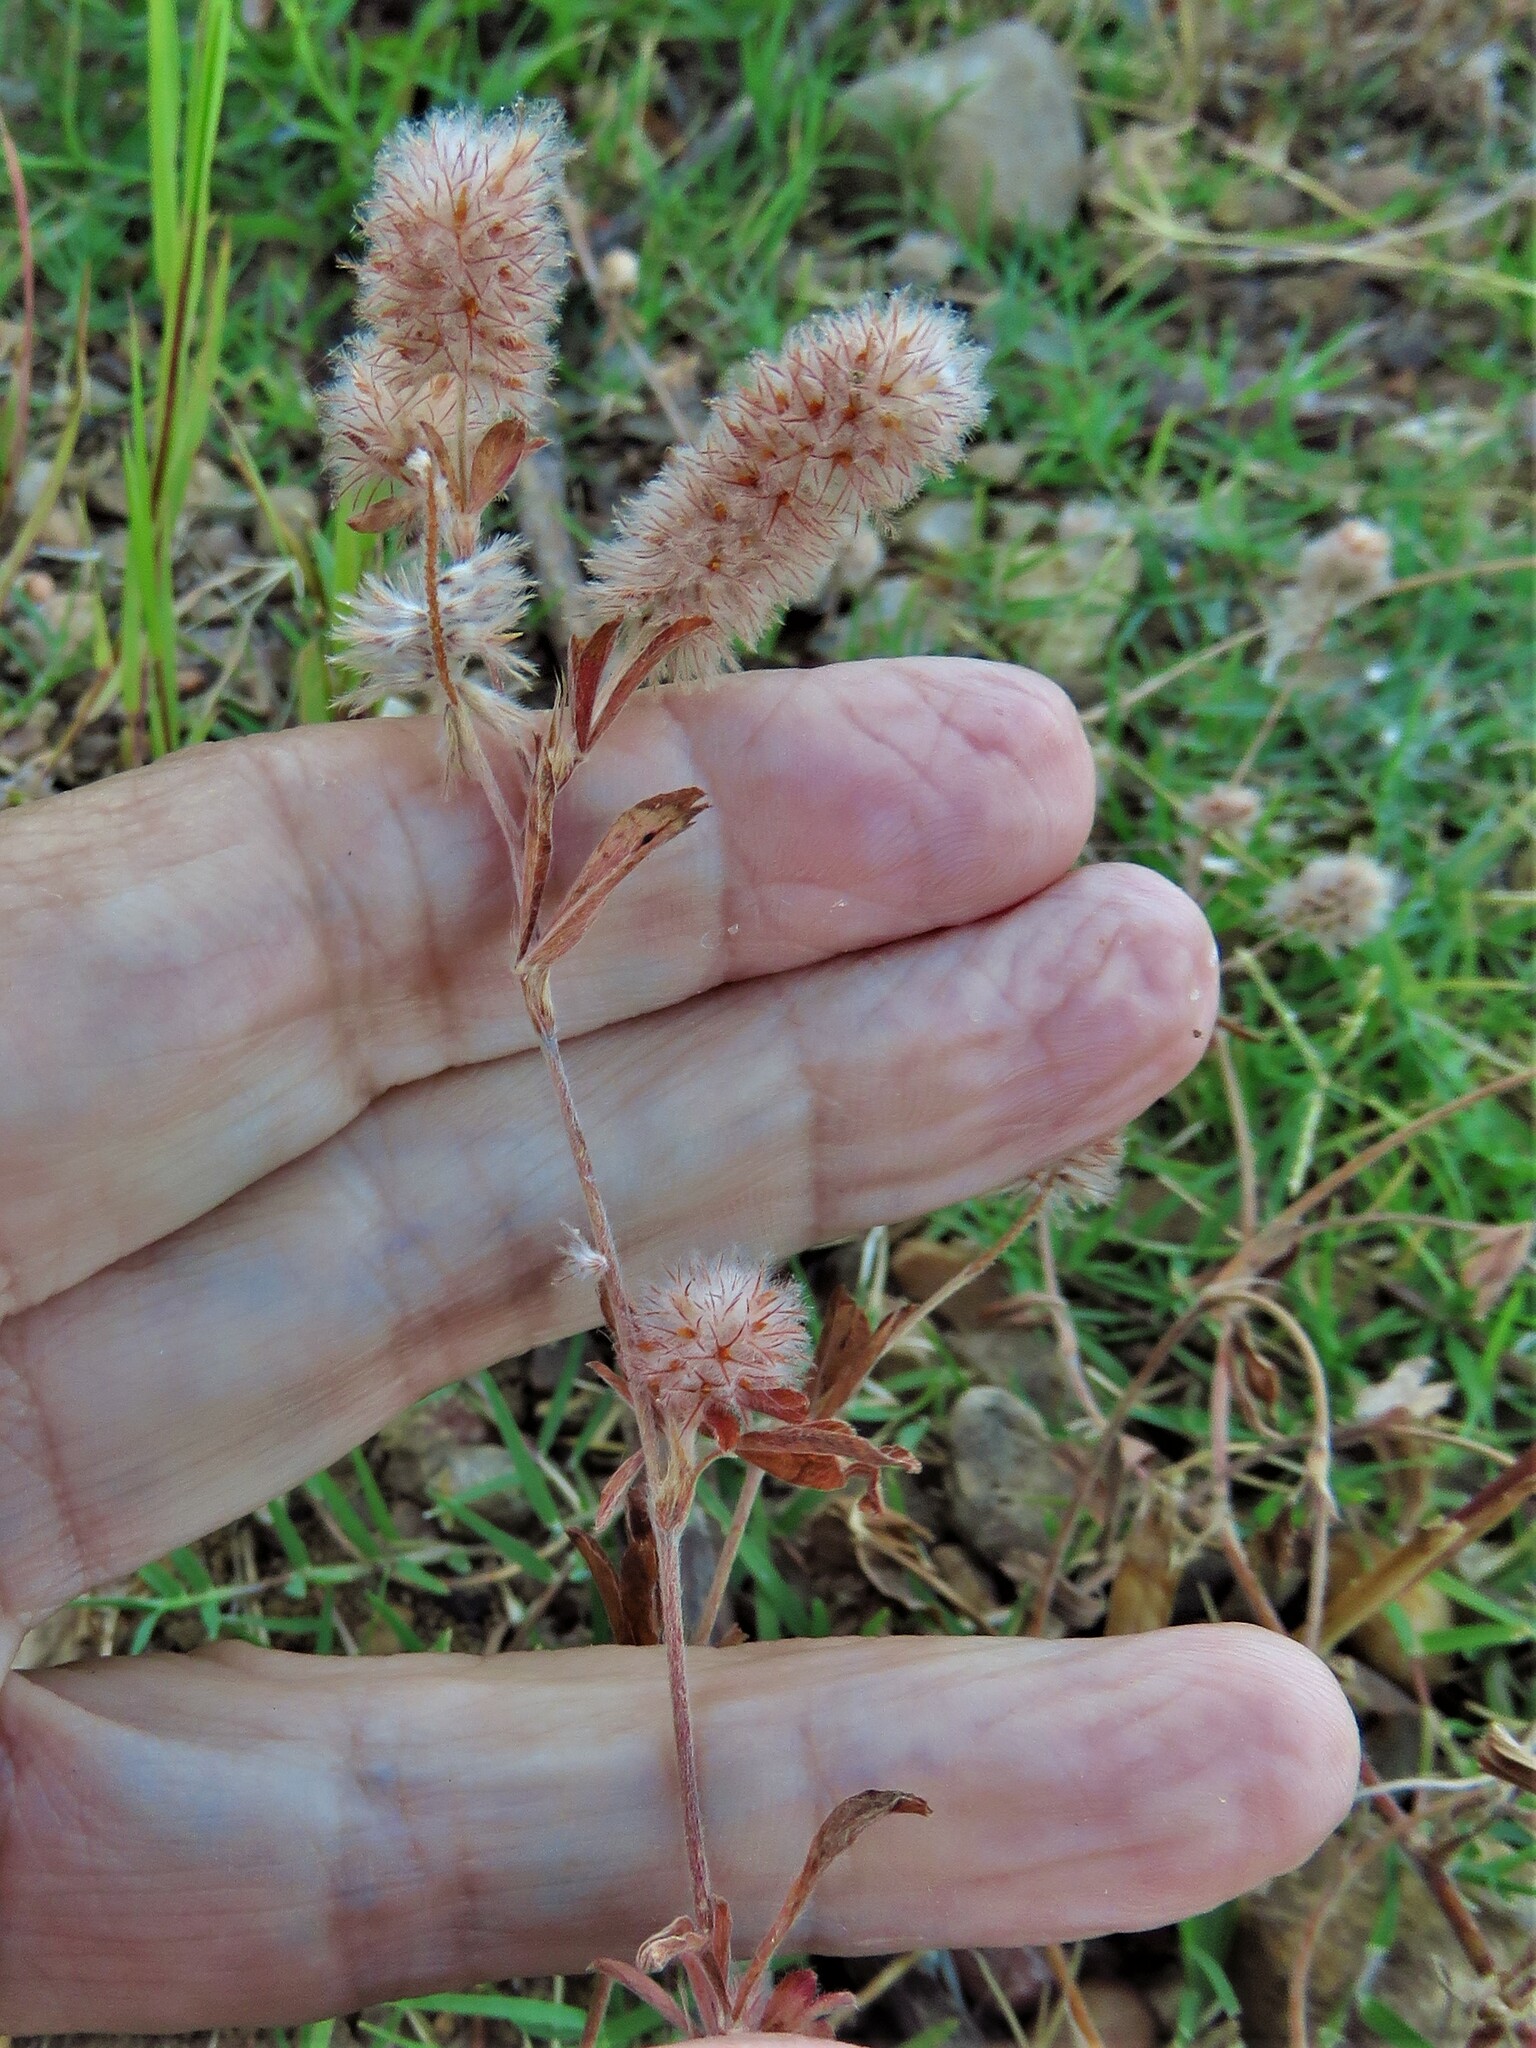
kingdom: Plantae
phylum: Tracheophyta
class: Magnoliopsida
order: Fabales
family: Fabaceae
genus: Trifolium
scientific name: Trifolium arvense
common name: Hare's-foot clover
